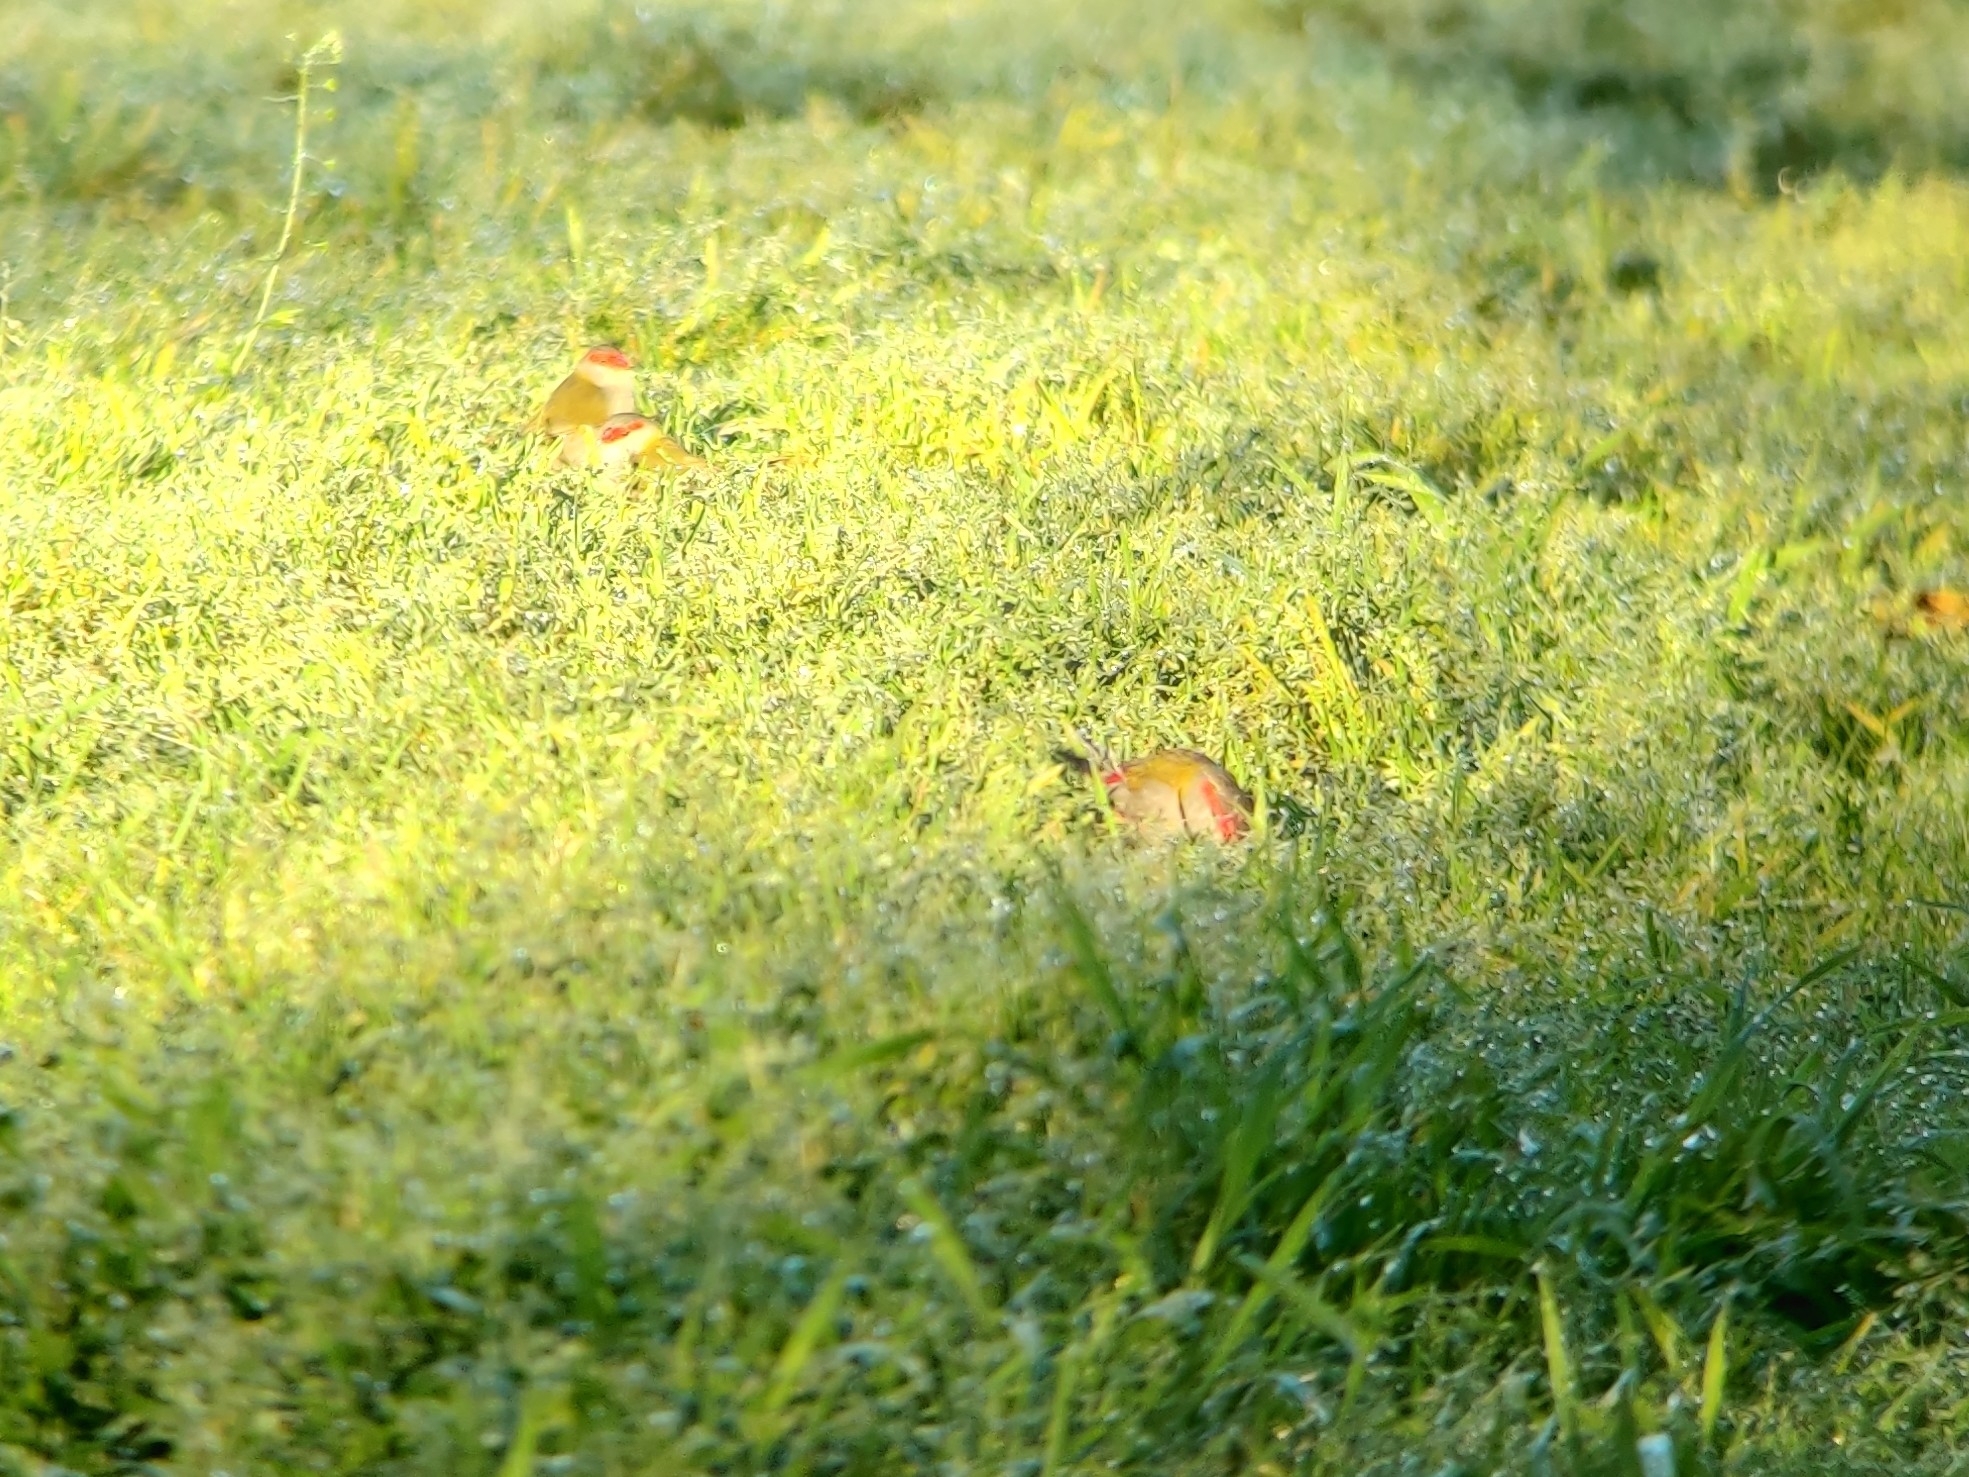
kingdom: Animalia
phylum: Chordata
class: Aves
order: Passeriformes
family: Estrildidae
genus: Neochmia
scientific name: Neochmia temporalis
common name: Red-browed finch
